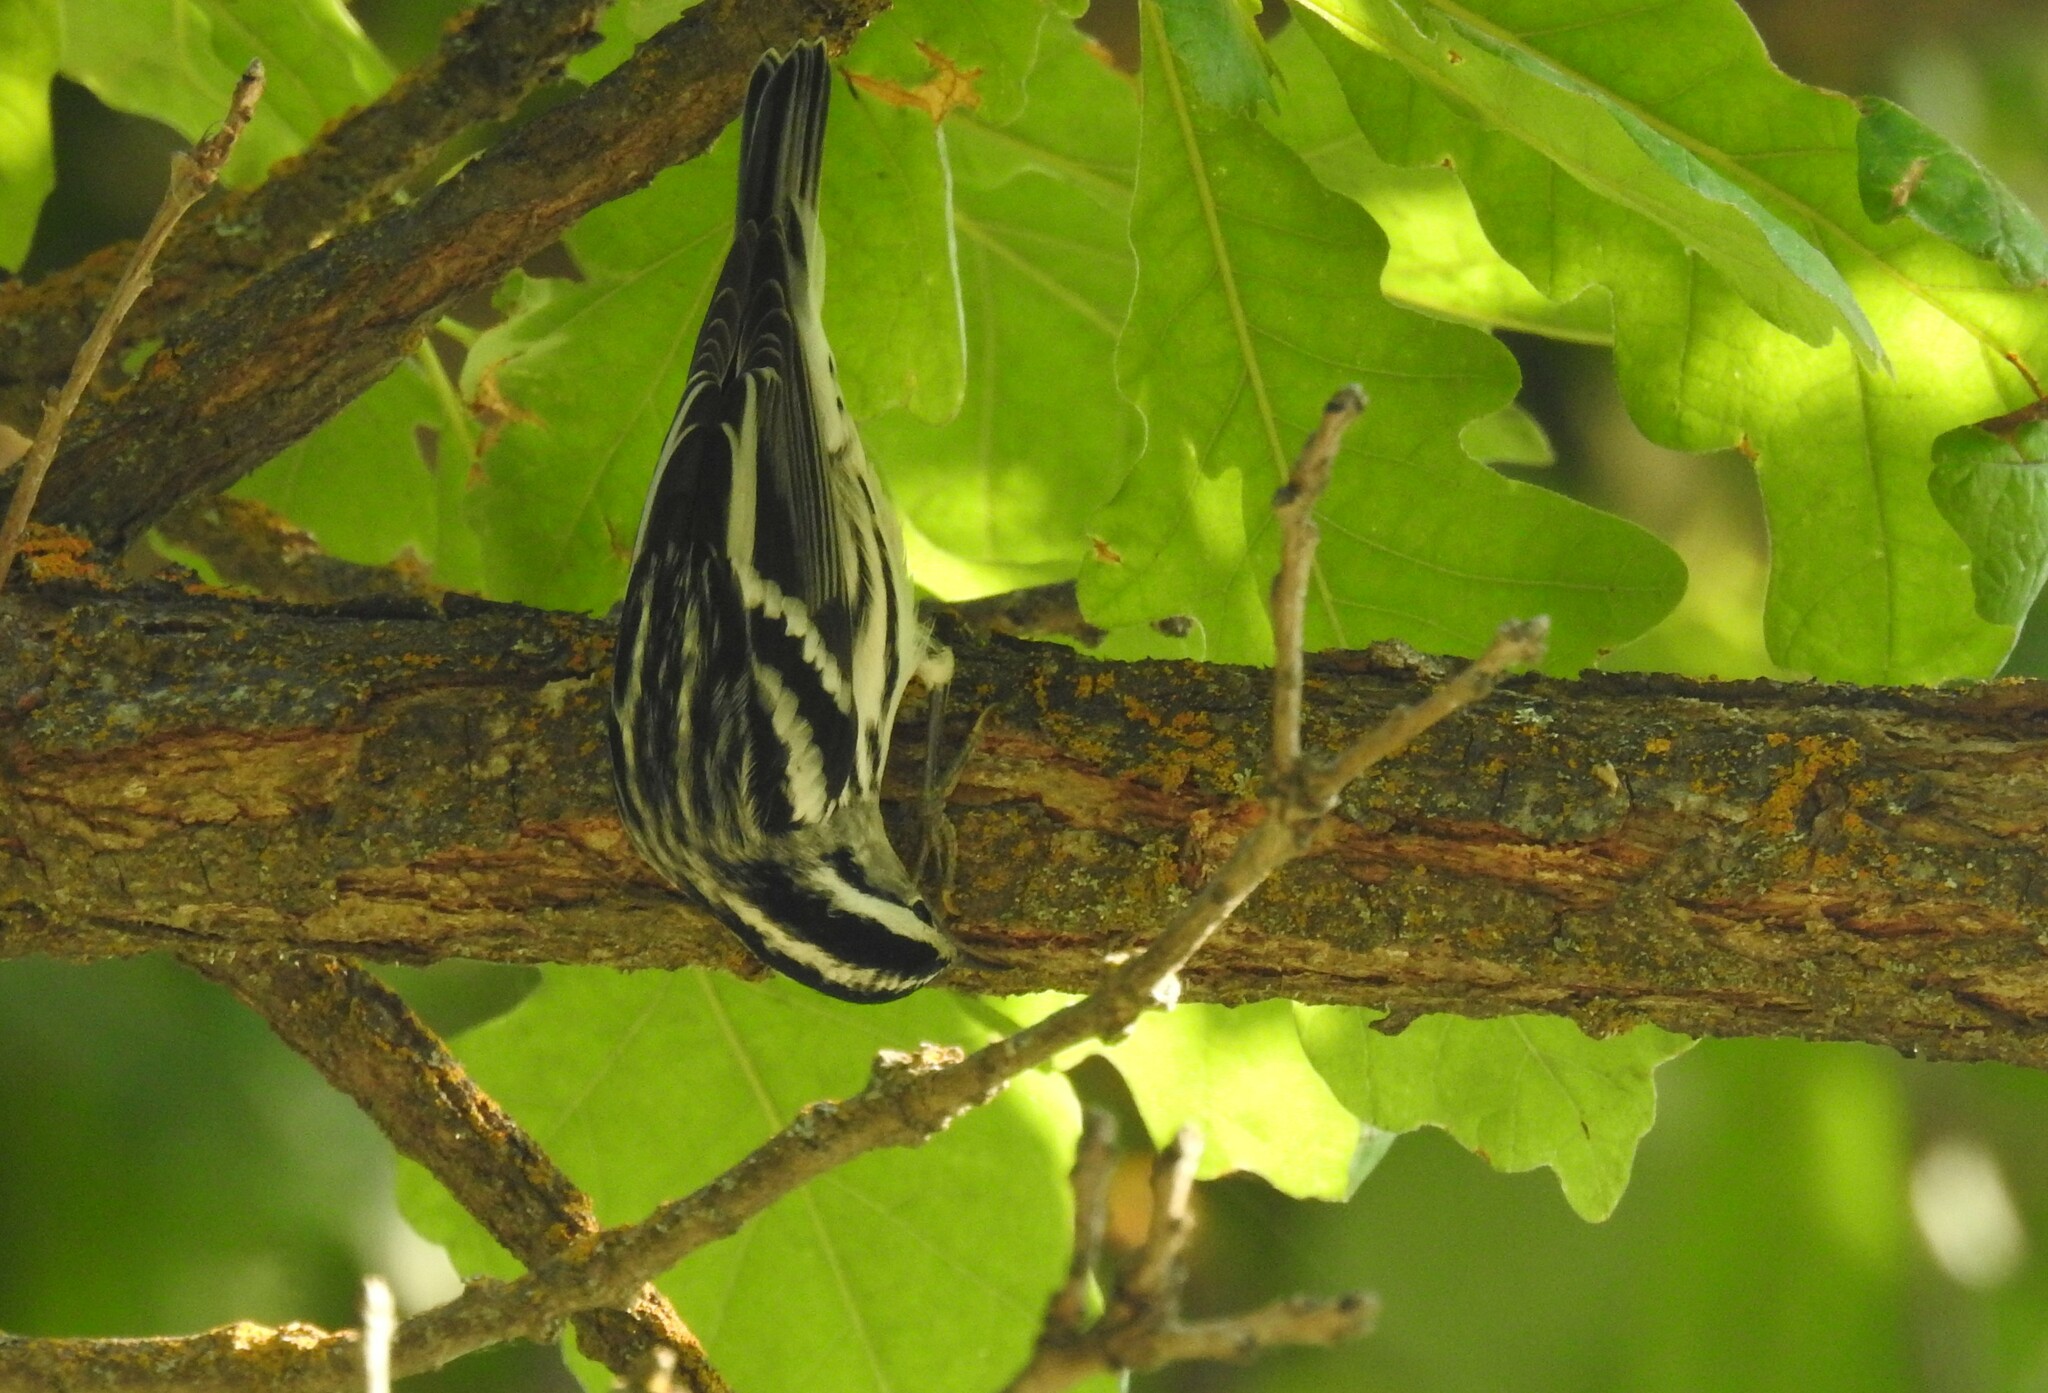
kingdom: Animalia
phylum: Chordata
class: Aves
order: Passeriformes
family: Parulidae
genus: Mniotilta
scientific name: Mniotilta varia
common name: Black-and-white warbler
